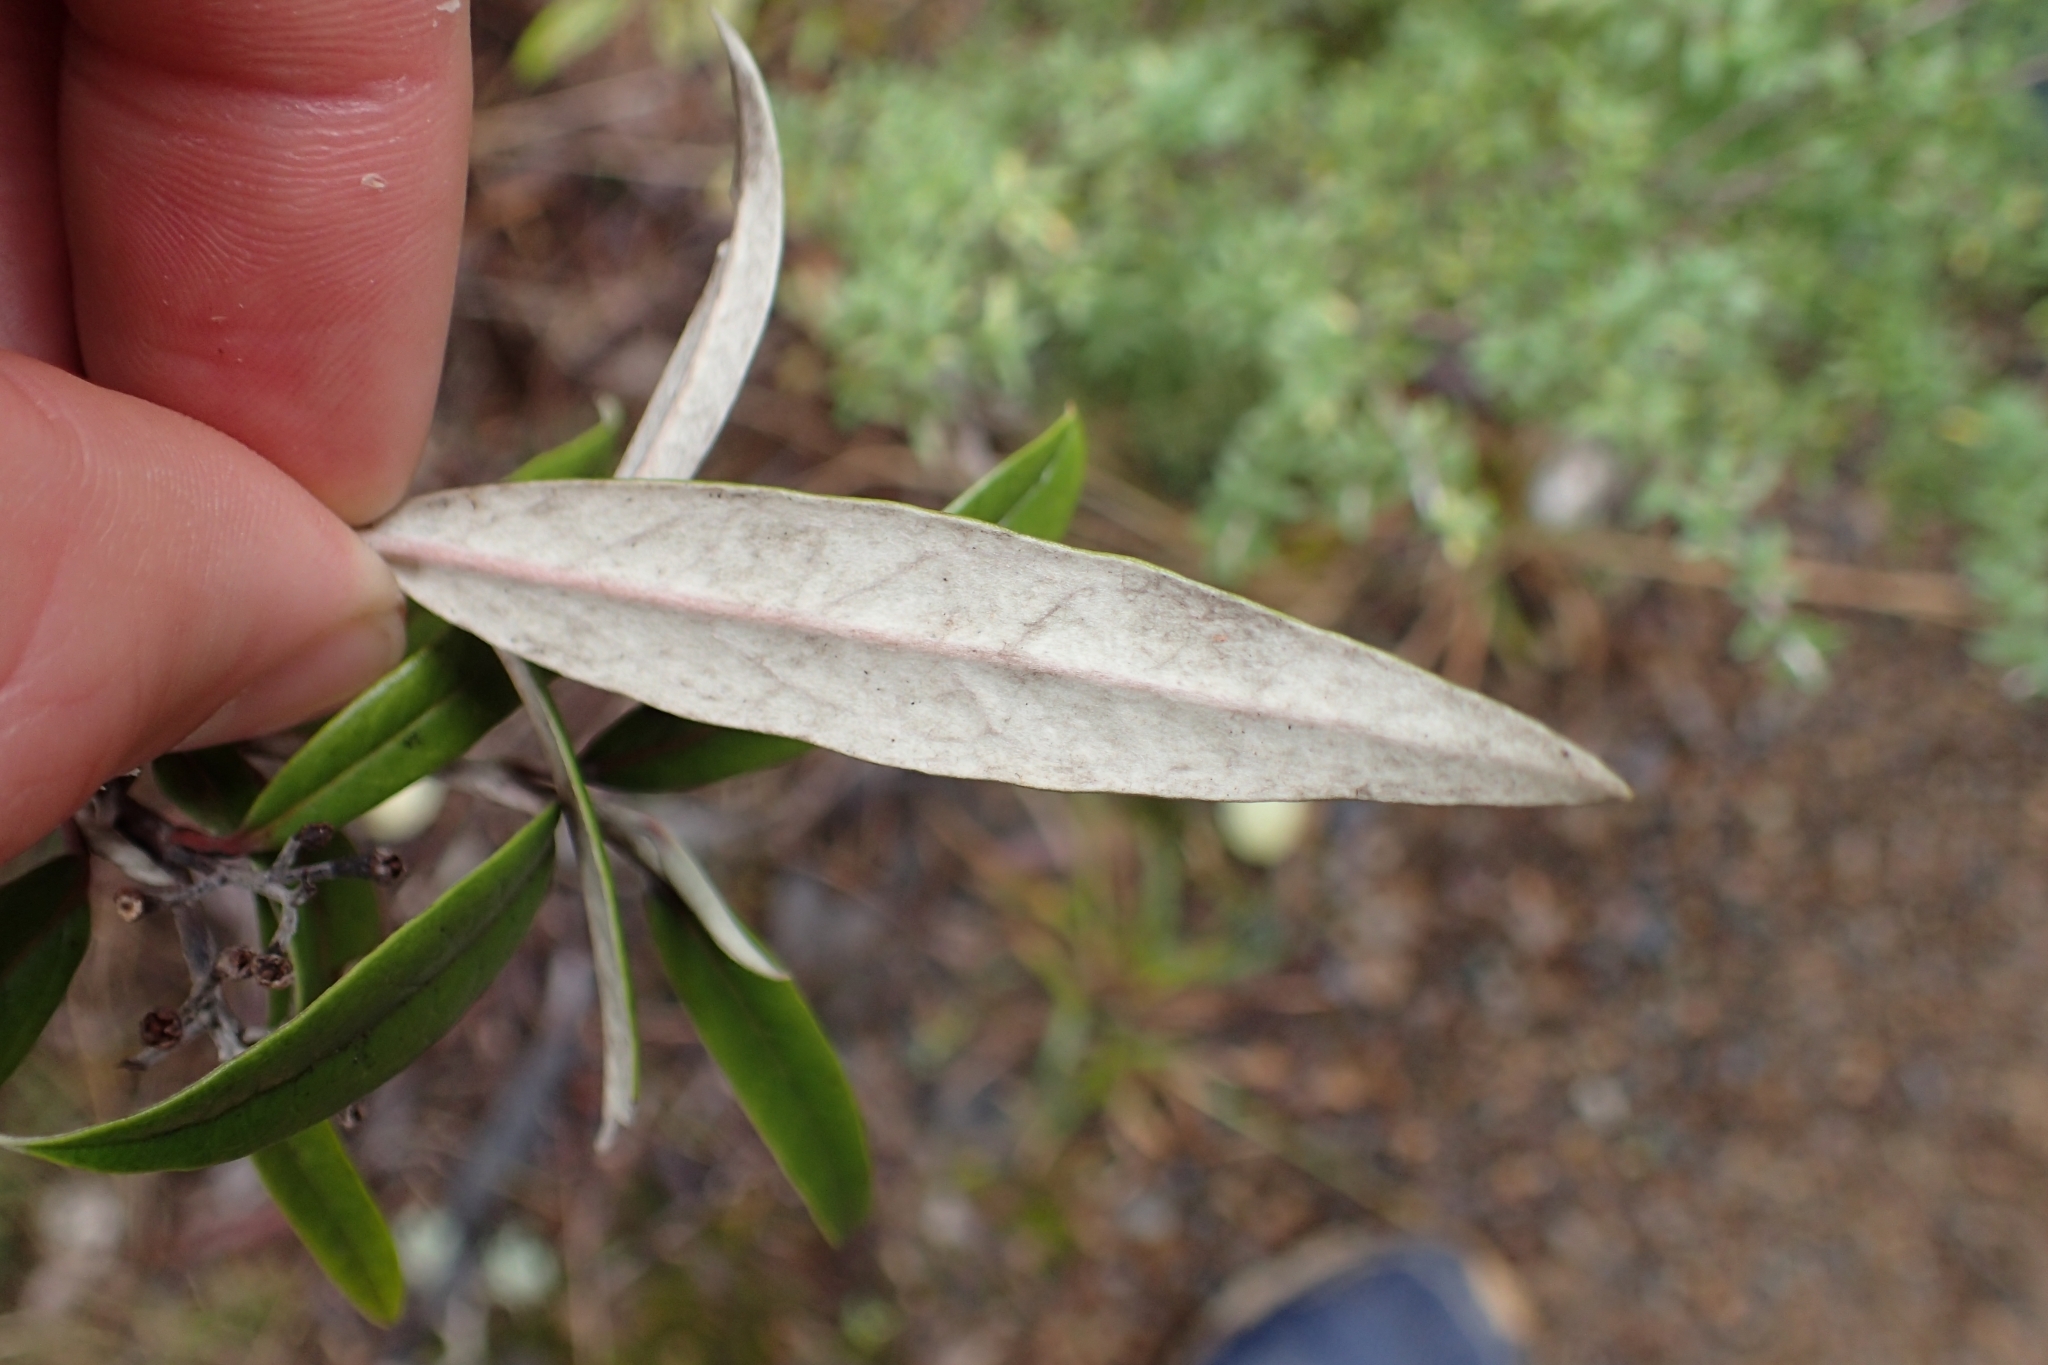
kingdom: Plantae
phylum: Tracheophyta
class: Magnoliopsida
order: Asterales
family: Argophyllaceae
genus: Corokia
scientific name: Corokia buddleioides
